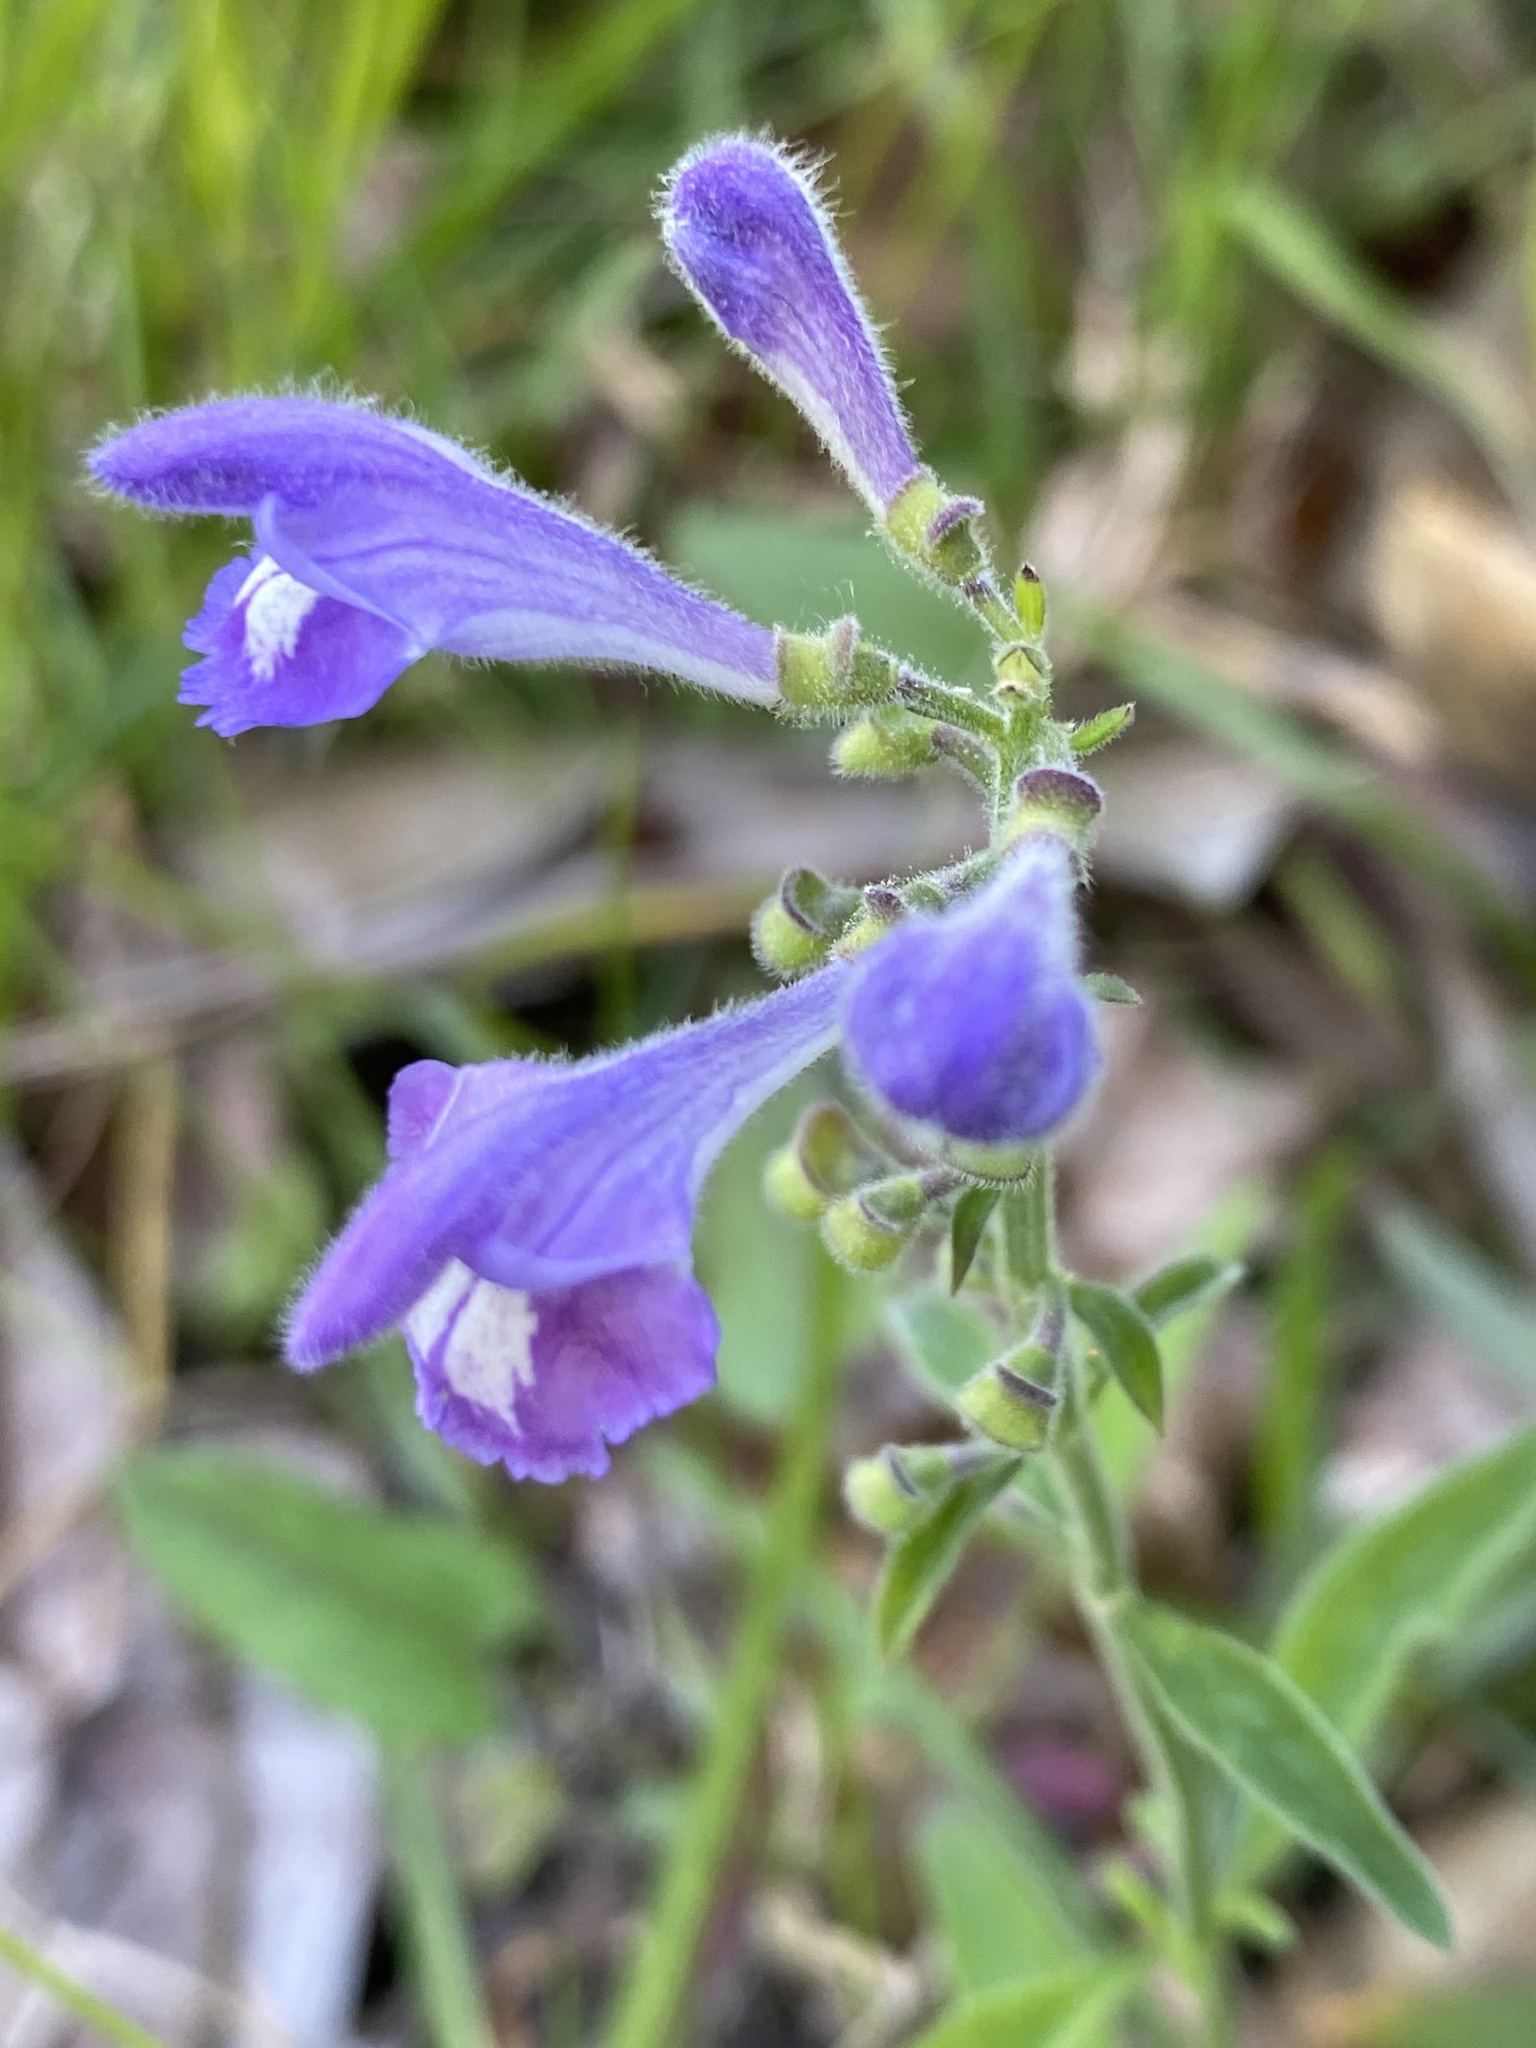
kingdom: Plantae
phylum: Tracheophyta
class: Magnoliopsida
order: Lamiales
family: Lamiaceae
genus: Scutellaria
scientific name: Scutellaria integrifolia
